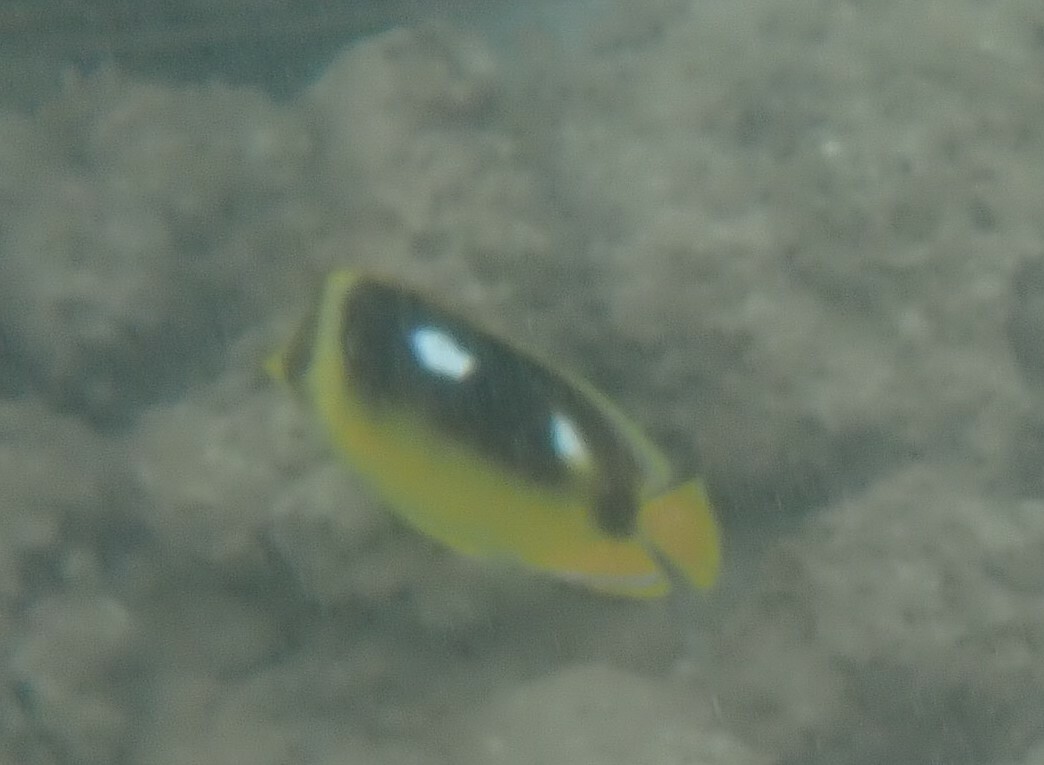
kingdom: Animalia
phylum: Chordata
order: Perciformes
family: Chaetodontidae
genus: Chaetodon
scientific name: Chaetodon quadrimaculatus
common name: Fourspot butterflyfish
